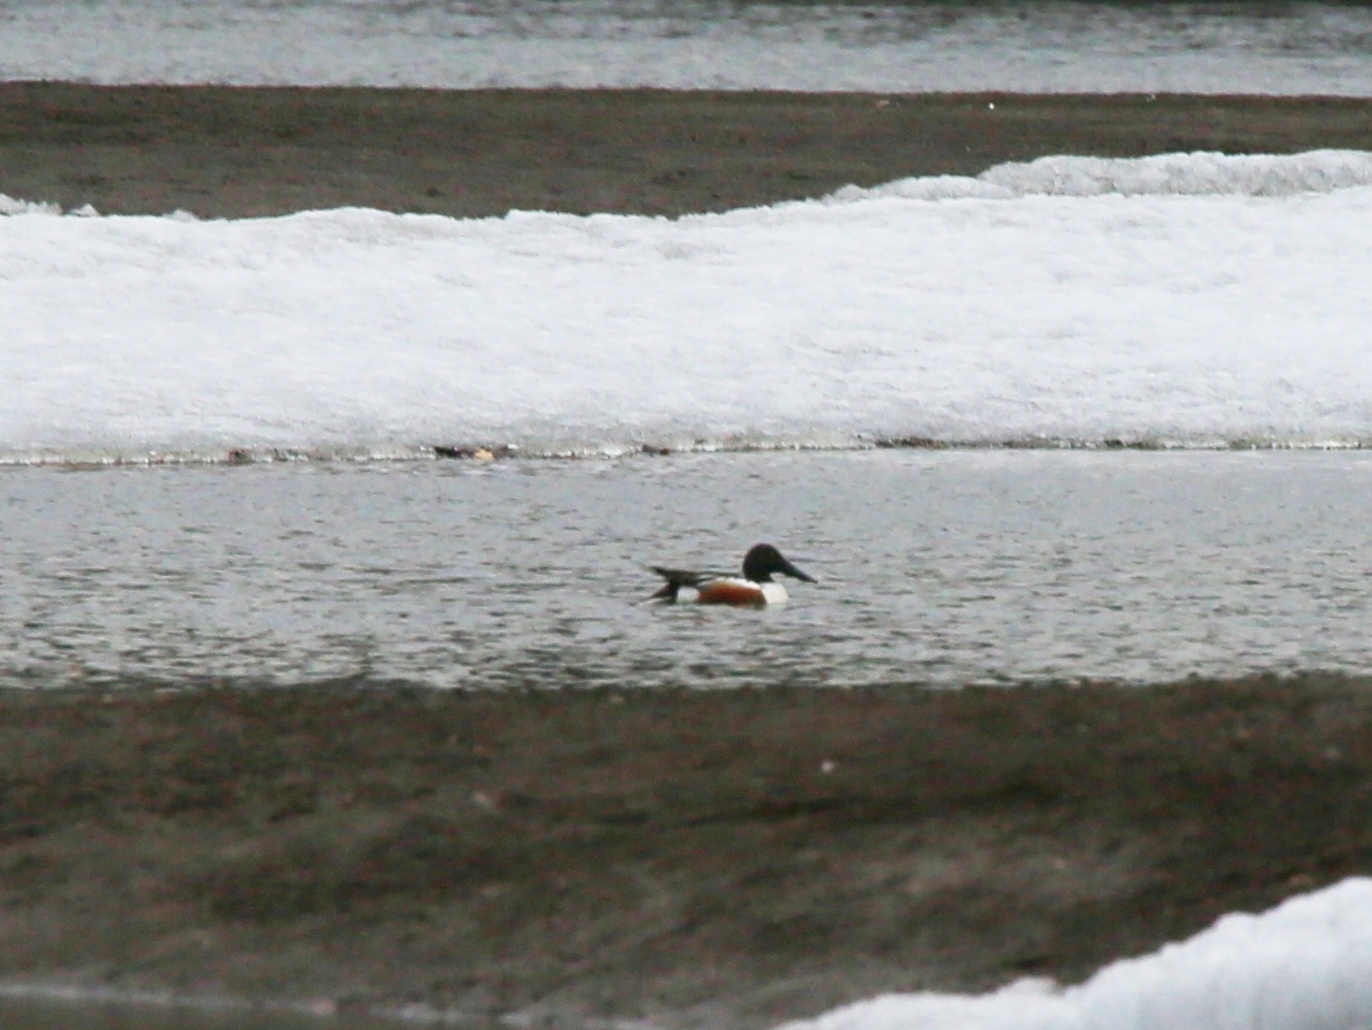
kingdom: Animalia
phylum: Chordata
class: Aves
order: Anseriformes
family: Anatidae
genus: Spatula
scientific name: Spatula clypeata
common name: Northern shoveler
